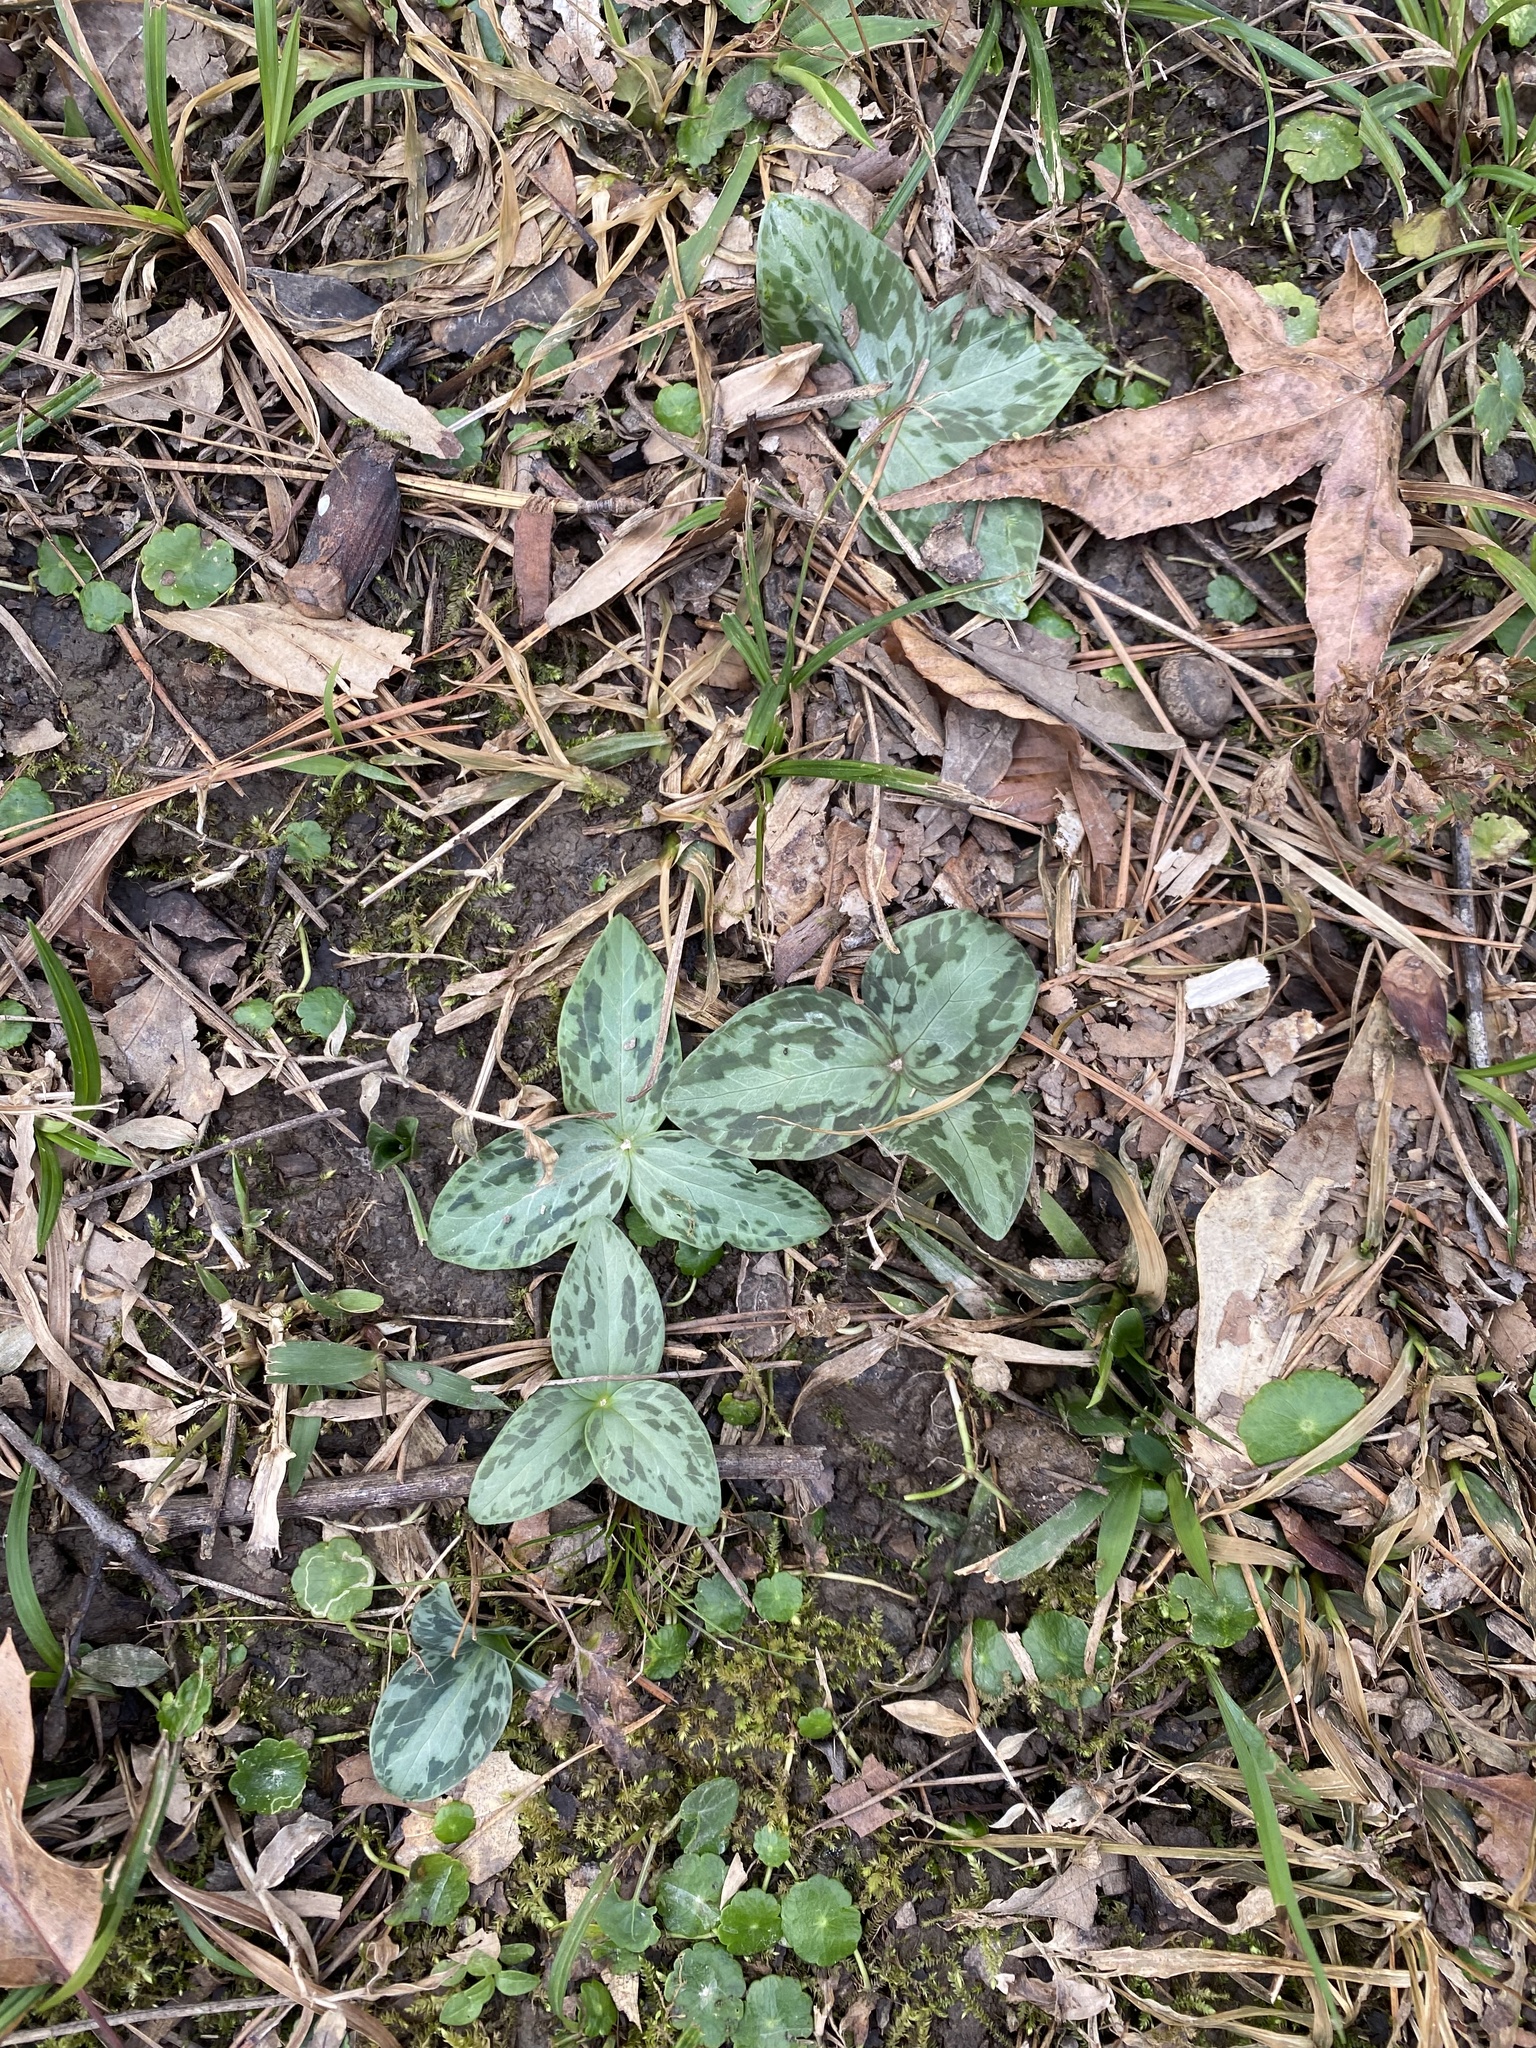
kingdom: Plantae
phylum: Tracheophyta
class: Liliopsida
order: Liliales
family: Melanthiaceae
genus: Trillium
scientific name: Trillium foetidissimum
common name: Mississippi river trillium
